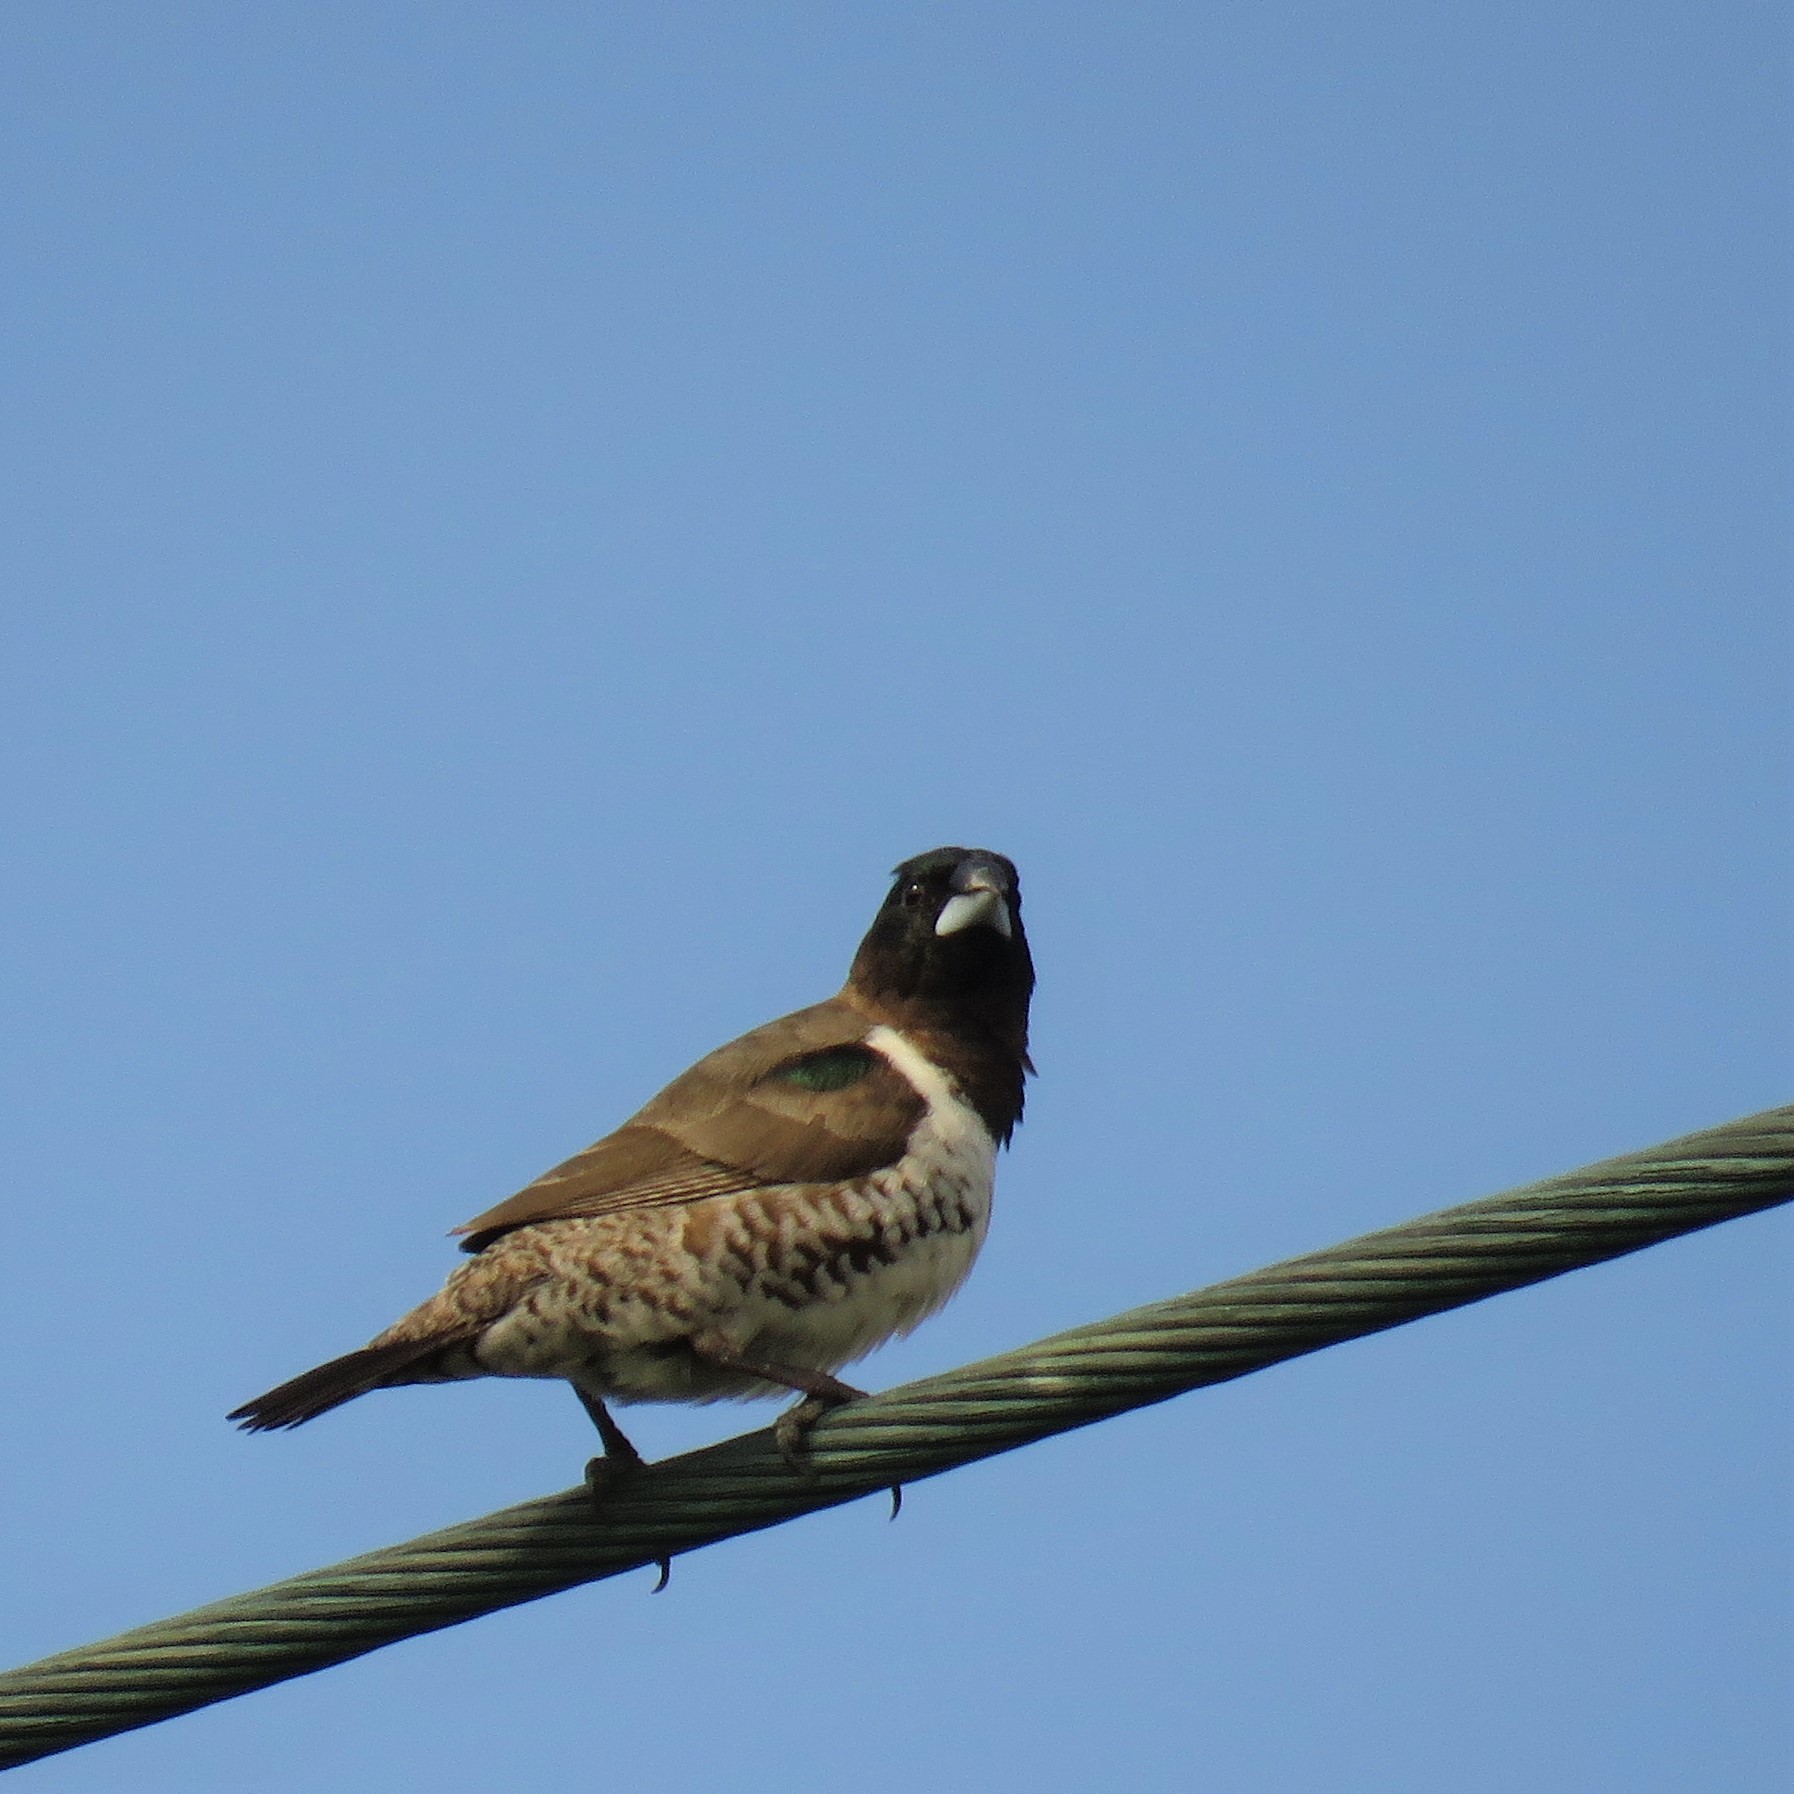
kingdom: Animalia
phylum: Chordata
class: Aves
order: Passeriformes
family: Estrildidae
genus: Lonchura
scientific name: Lonchura cucullata
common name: Bronze mannikin
